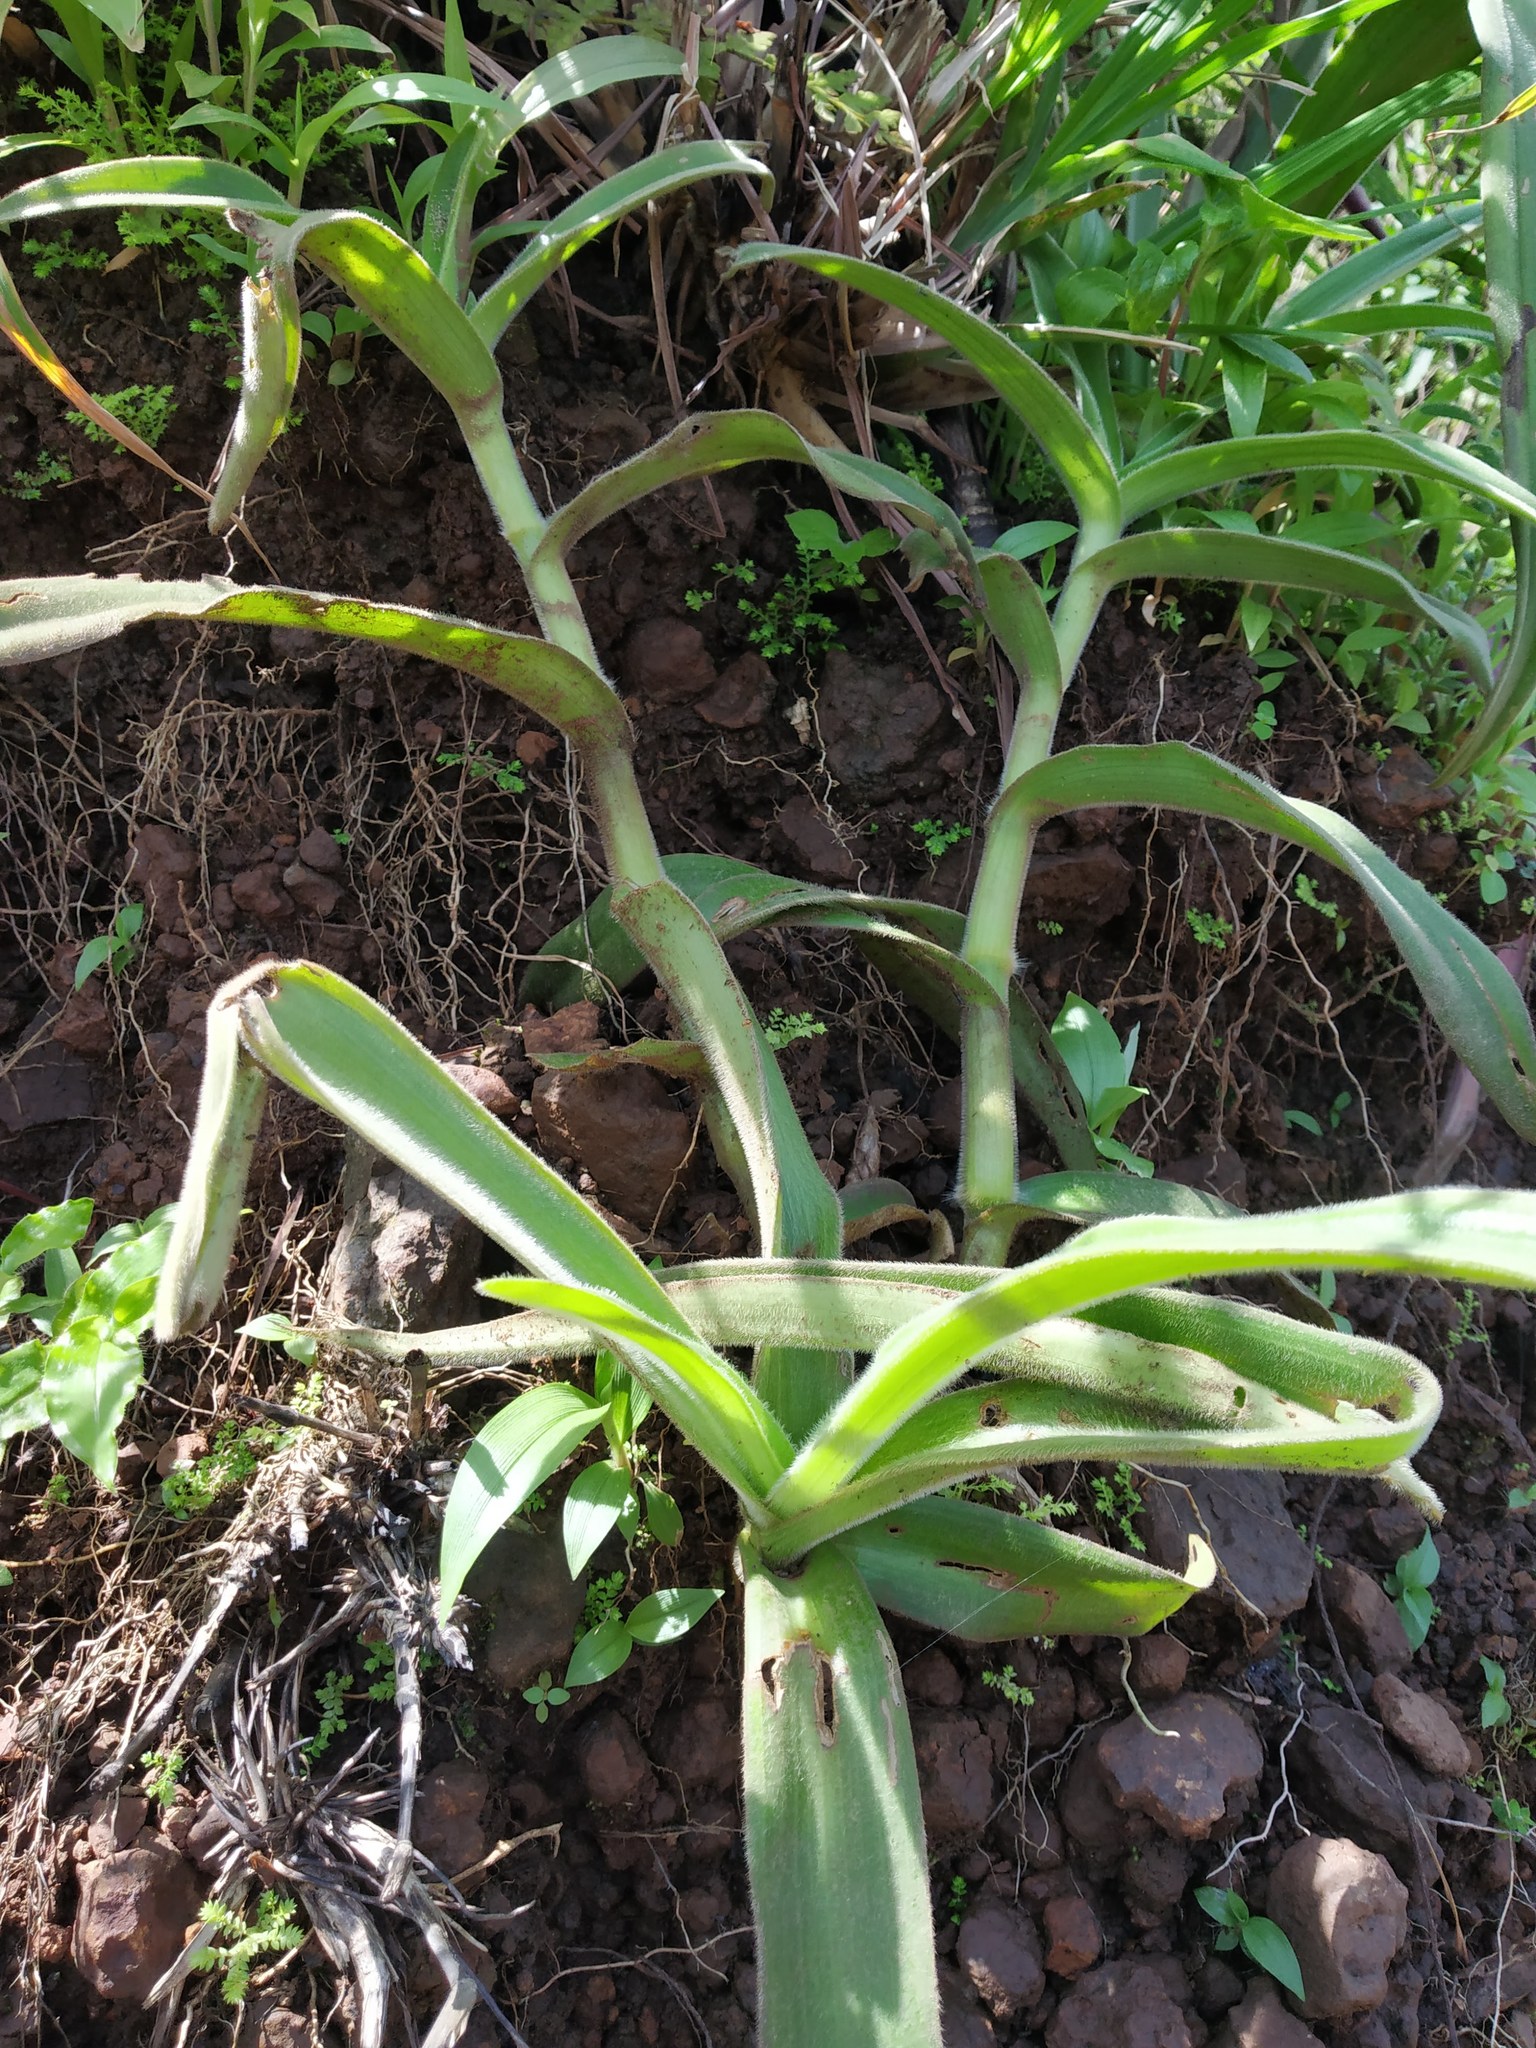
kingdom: Plantae
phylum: Tracheophyta
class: Liliopsida
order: Commelinales
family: Commelinaceae
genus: Cyanotis
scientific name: Cyanotis tuberosa
